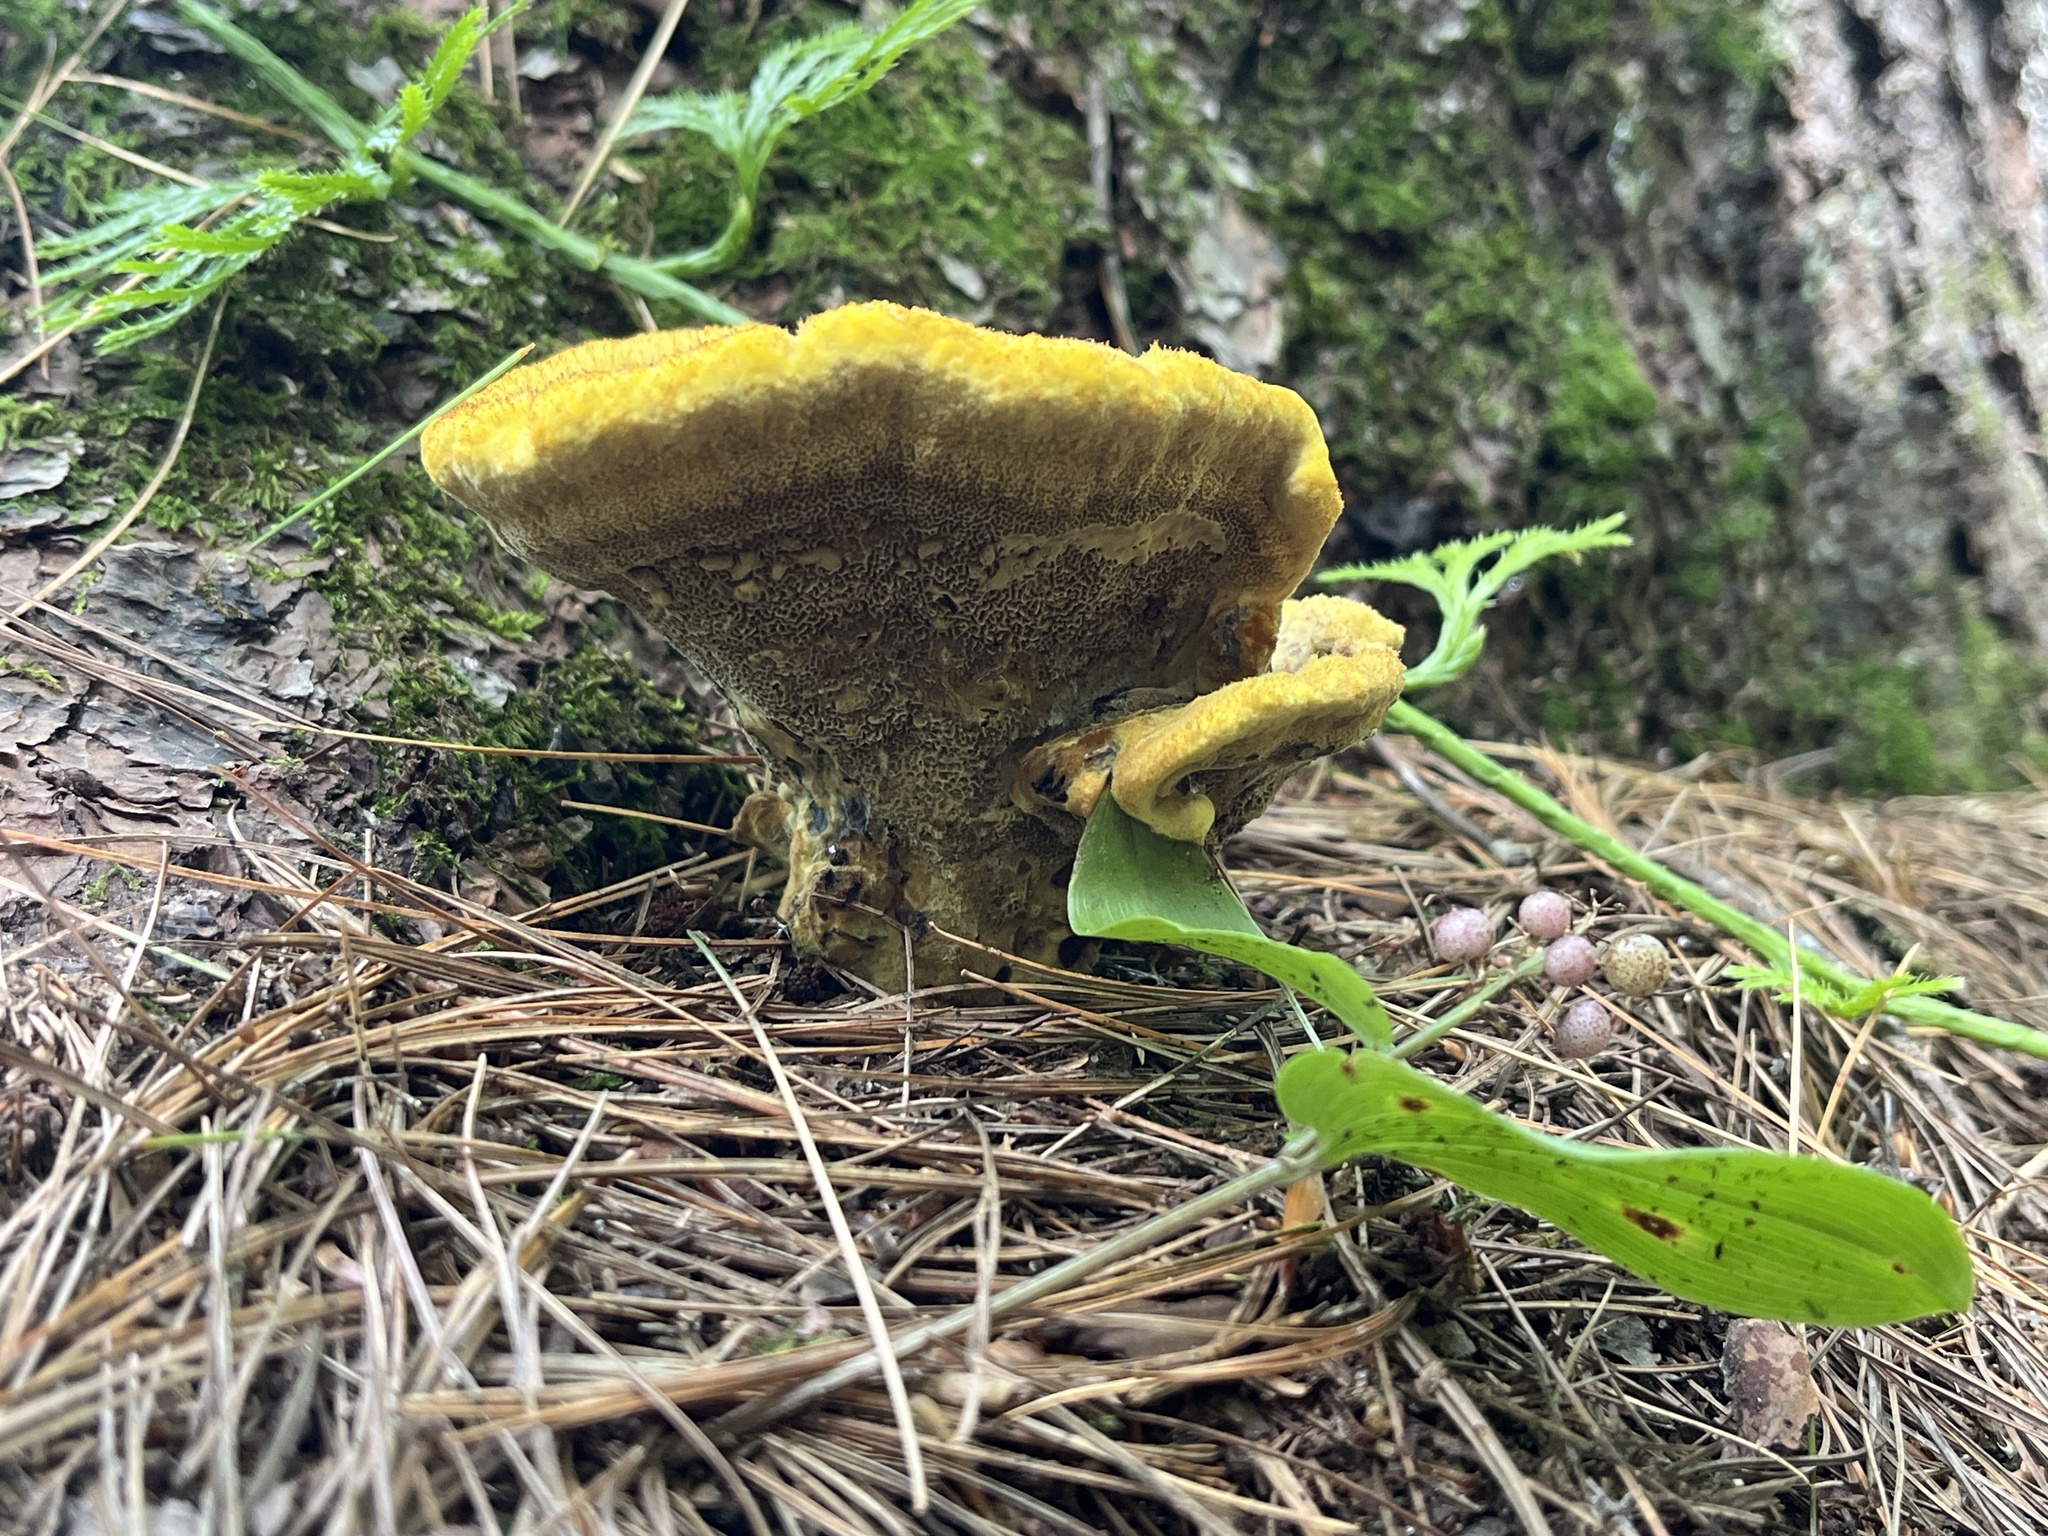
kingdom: Fungi
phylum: Basidiomycota
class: Agaricomycetes
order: Polyporales
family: Laetiporaceae
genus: Phaeolus
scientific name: Phaeolus schweinitzii
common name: Dyer's mazegill
